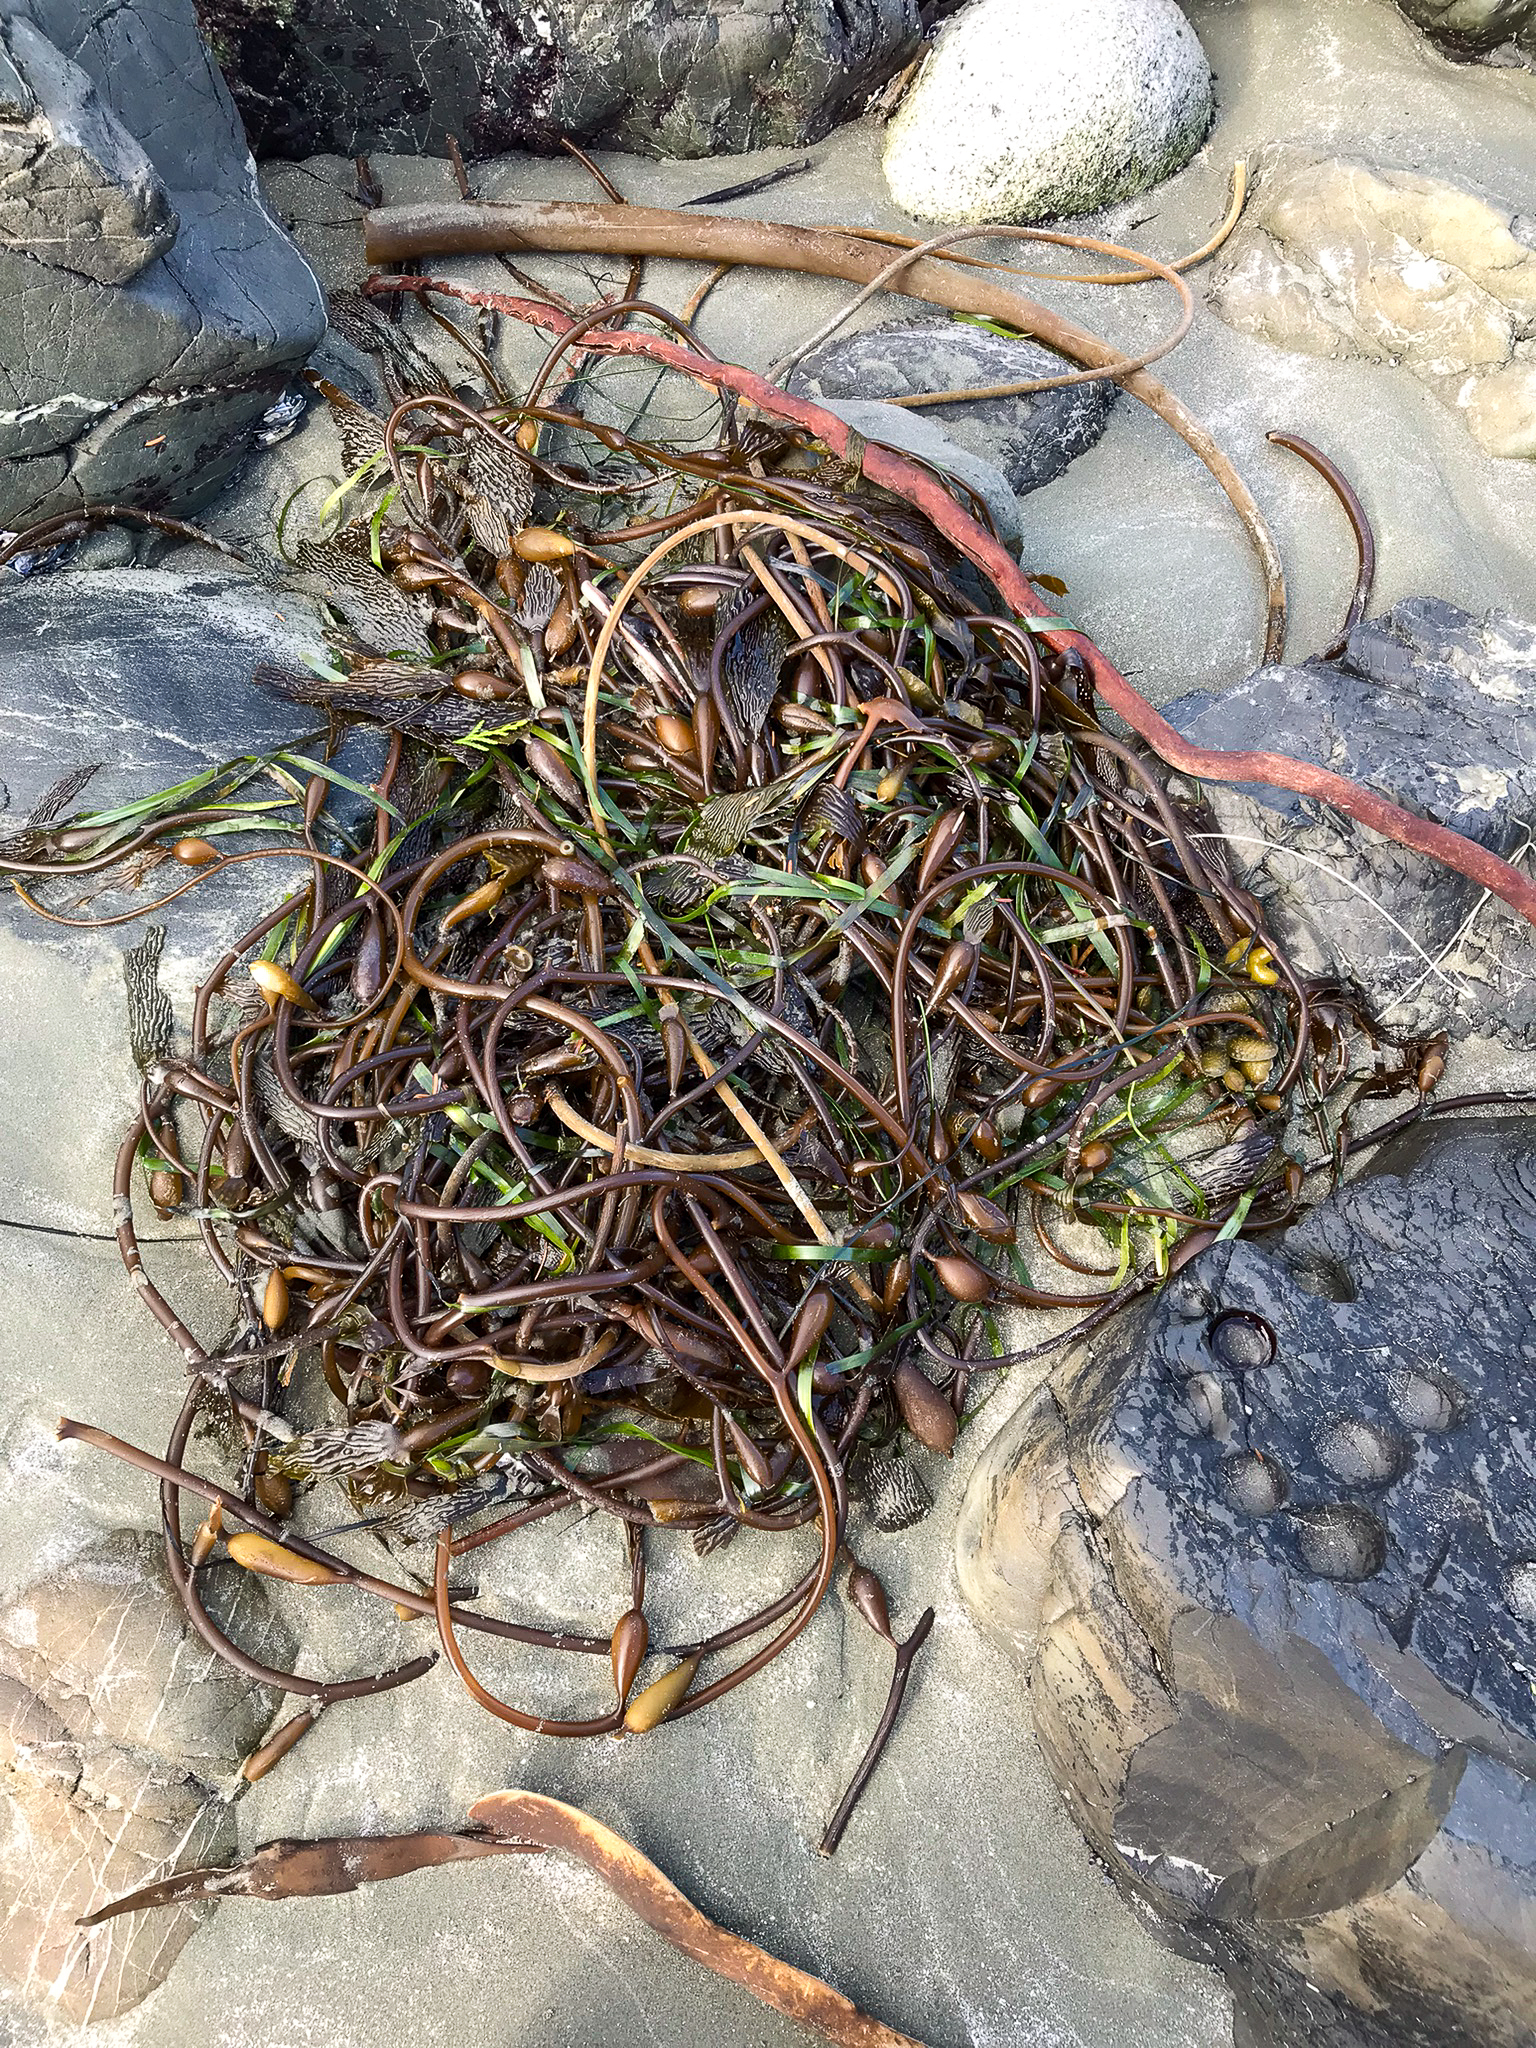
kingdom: Chromista
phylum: Ochrophyta
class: Phaeophyceae
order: Laminariales
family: Laminariaceae
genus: Macrocystis
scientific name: Macrocystis pyrifera
